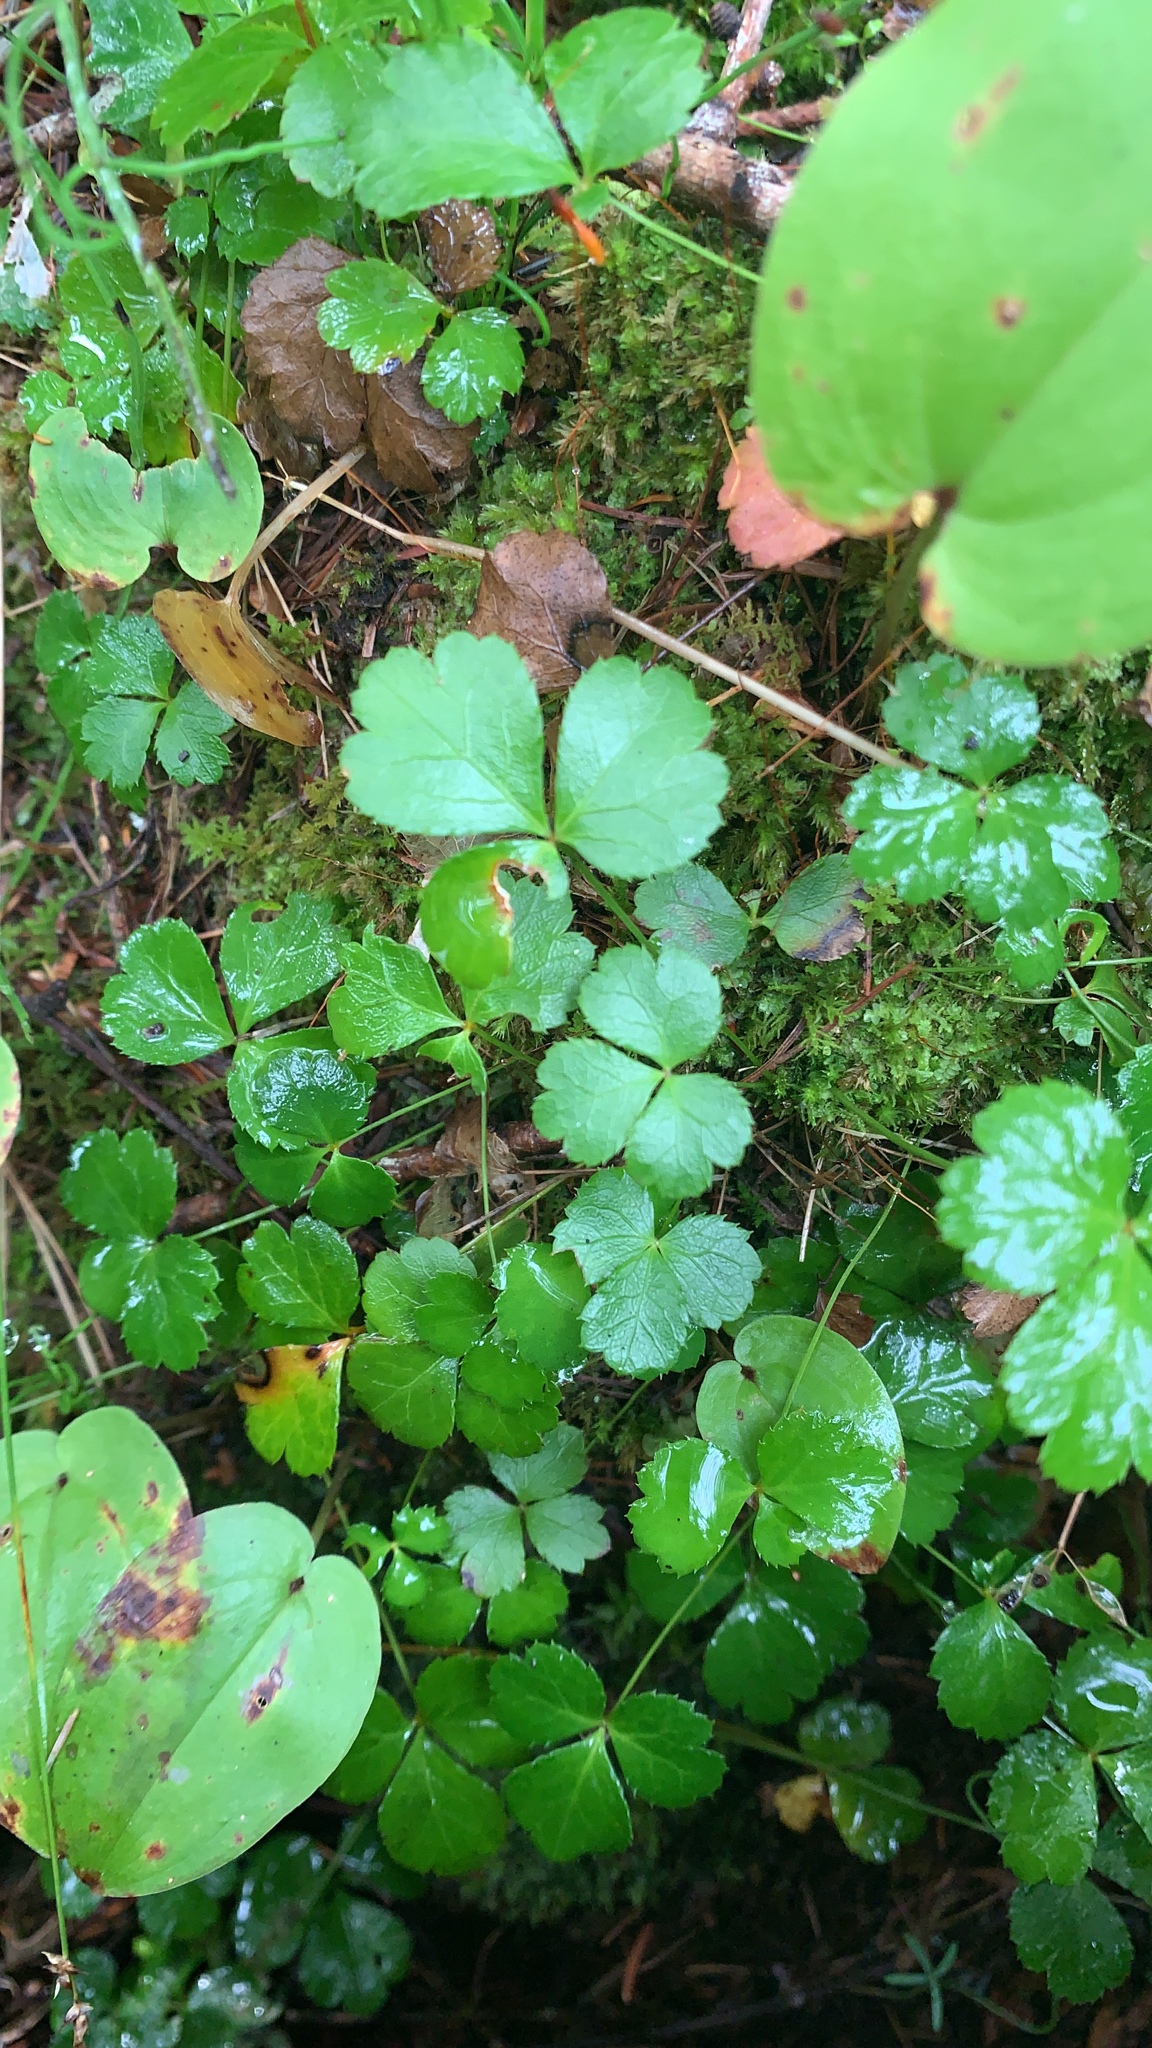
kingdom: Plantae
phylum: Tracheophyta
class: Magnoliopsida
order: Ranunculales
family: Ranunculaceae
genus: Coptis
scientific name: Coptis trifolia
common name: Canker-root
